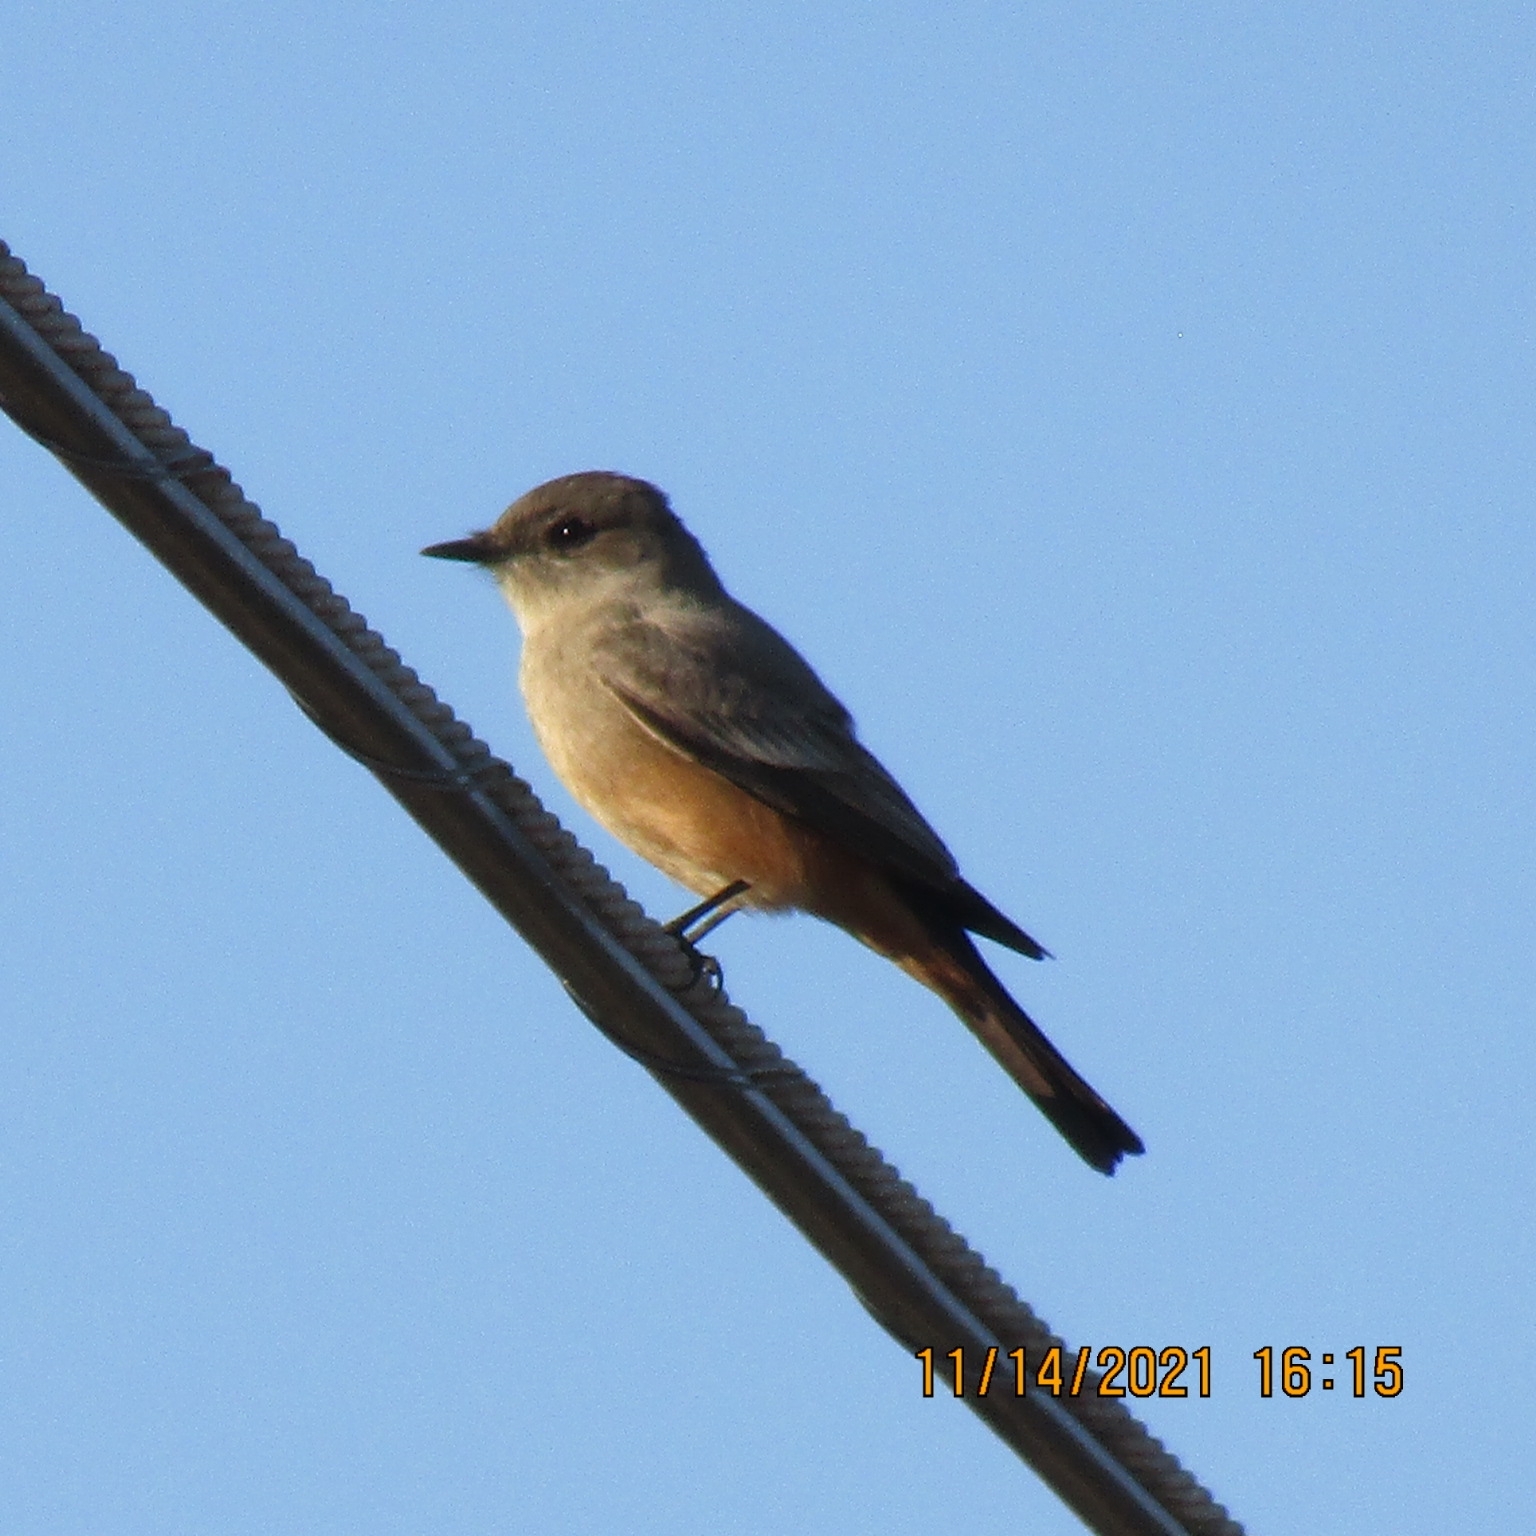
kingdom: Animalia
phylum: Chordata
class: Aves
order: Passeriformes
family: Tyrannidae
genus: Sayornis
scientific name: Sayornis saya
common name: Say's phoebe
